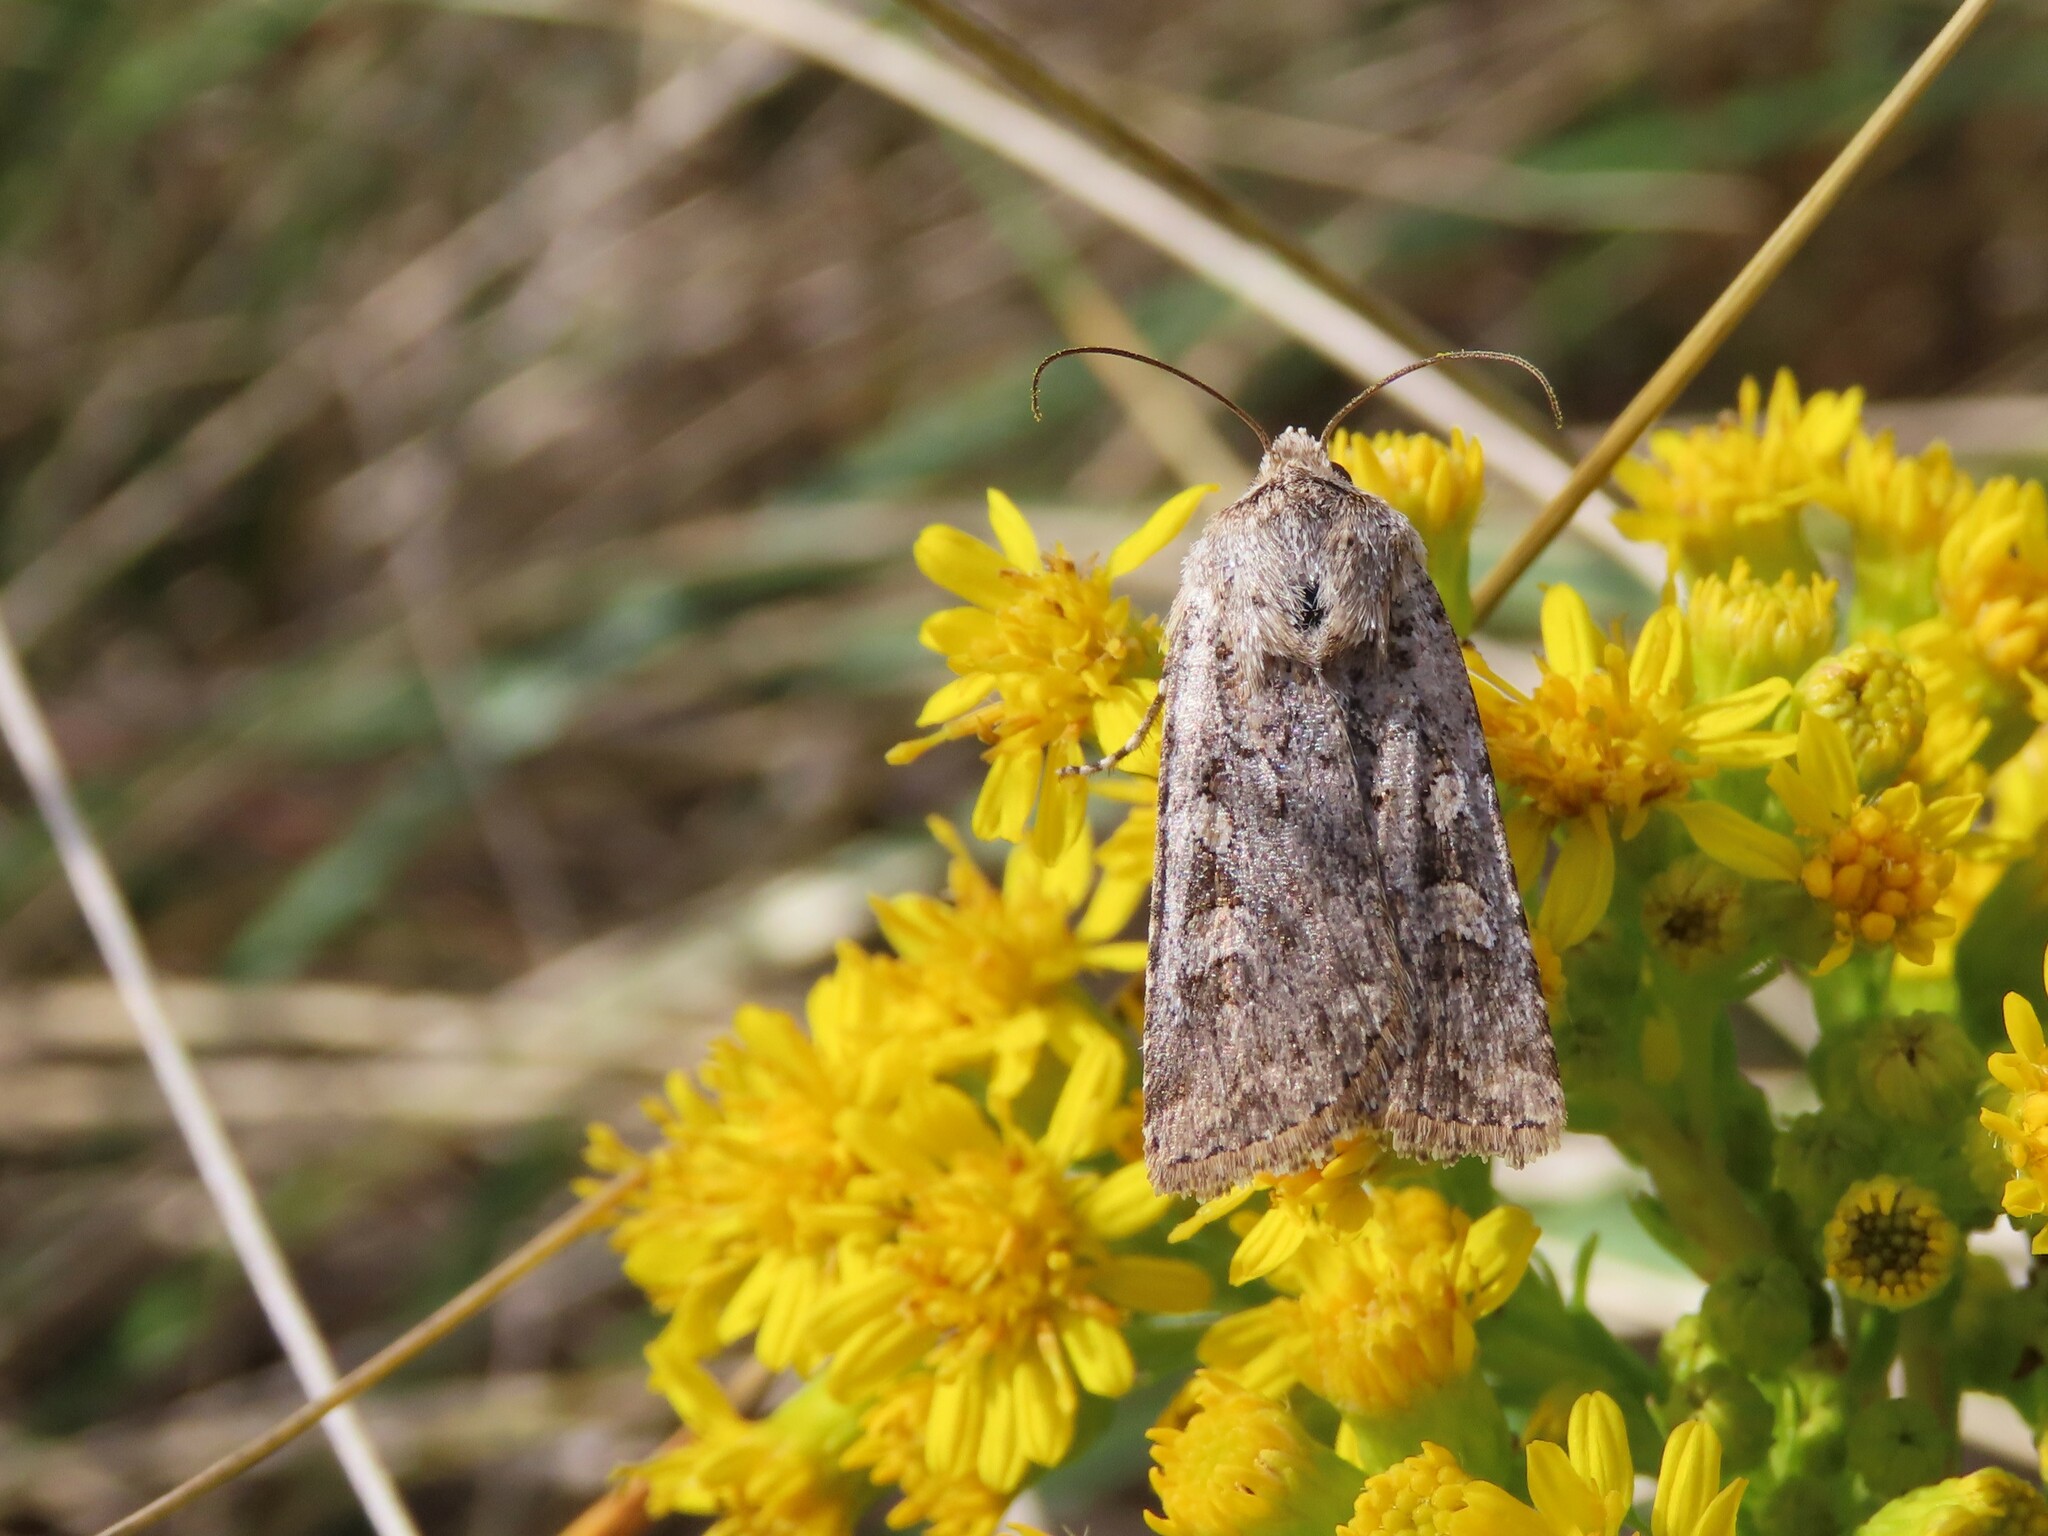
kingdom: Animalia
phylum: Arthropoda
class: Insecta
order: Lepidoptera
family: Noctuidae
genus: Euxoa
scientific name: Euxoa detersa
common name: Rubbed dart
